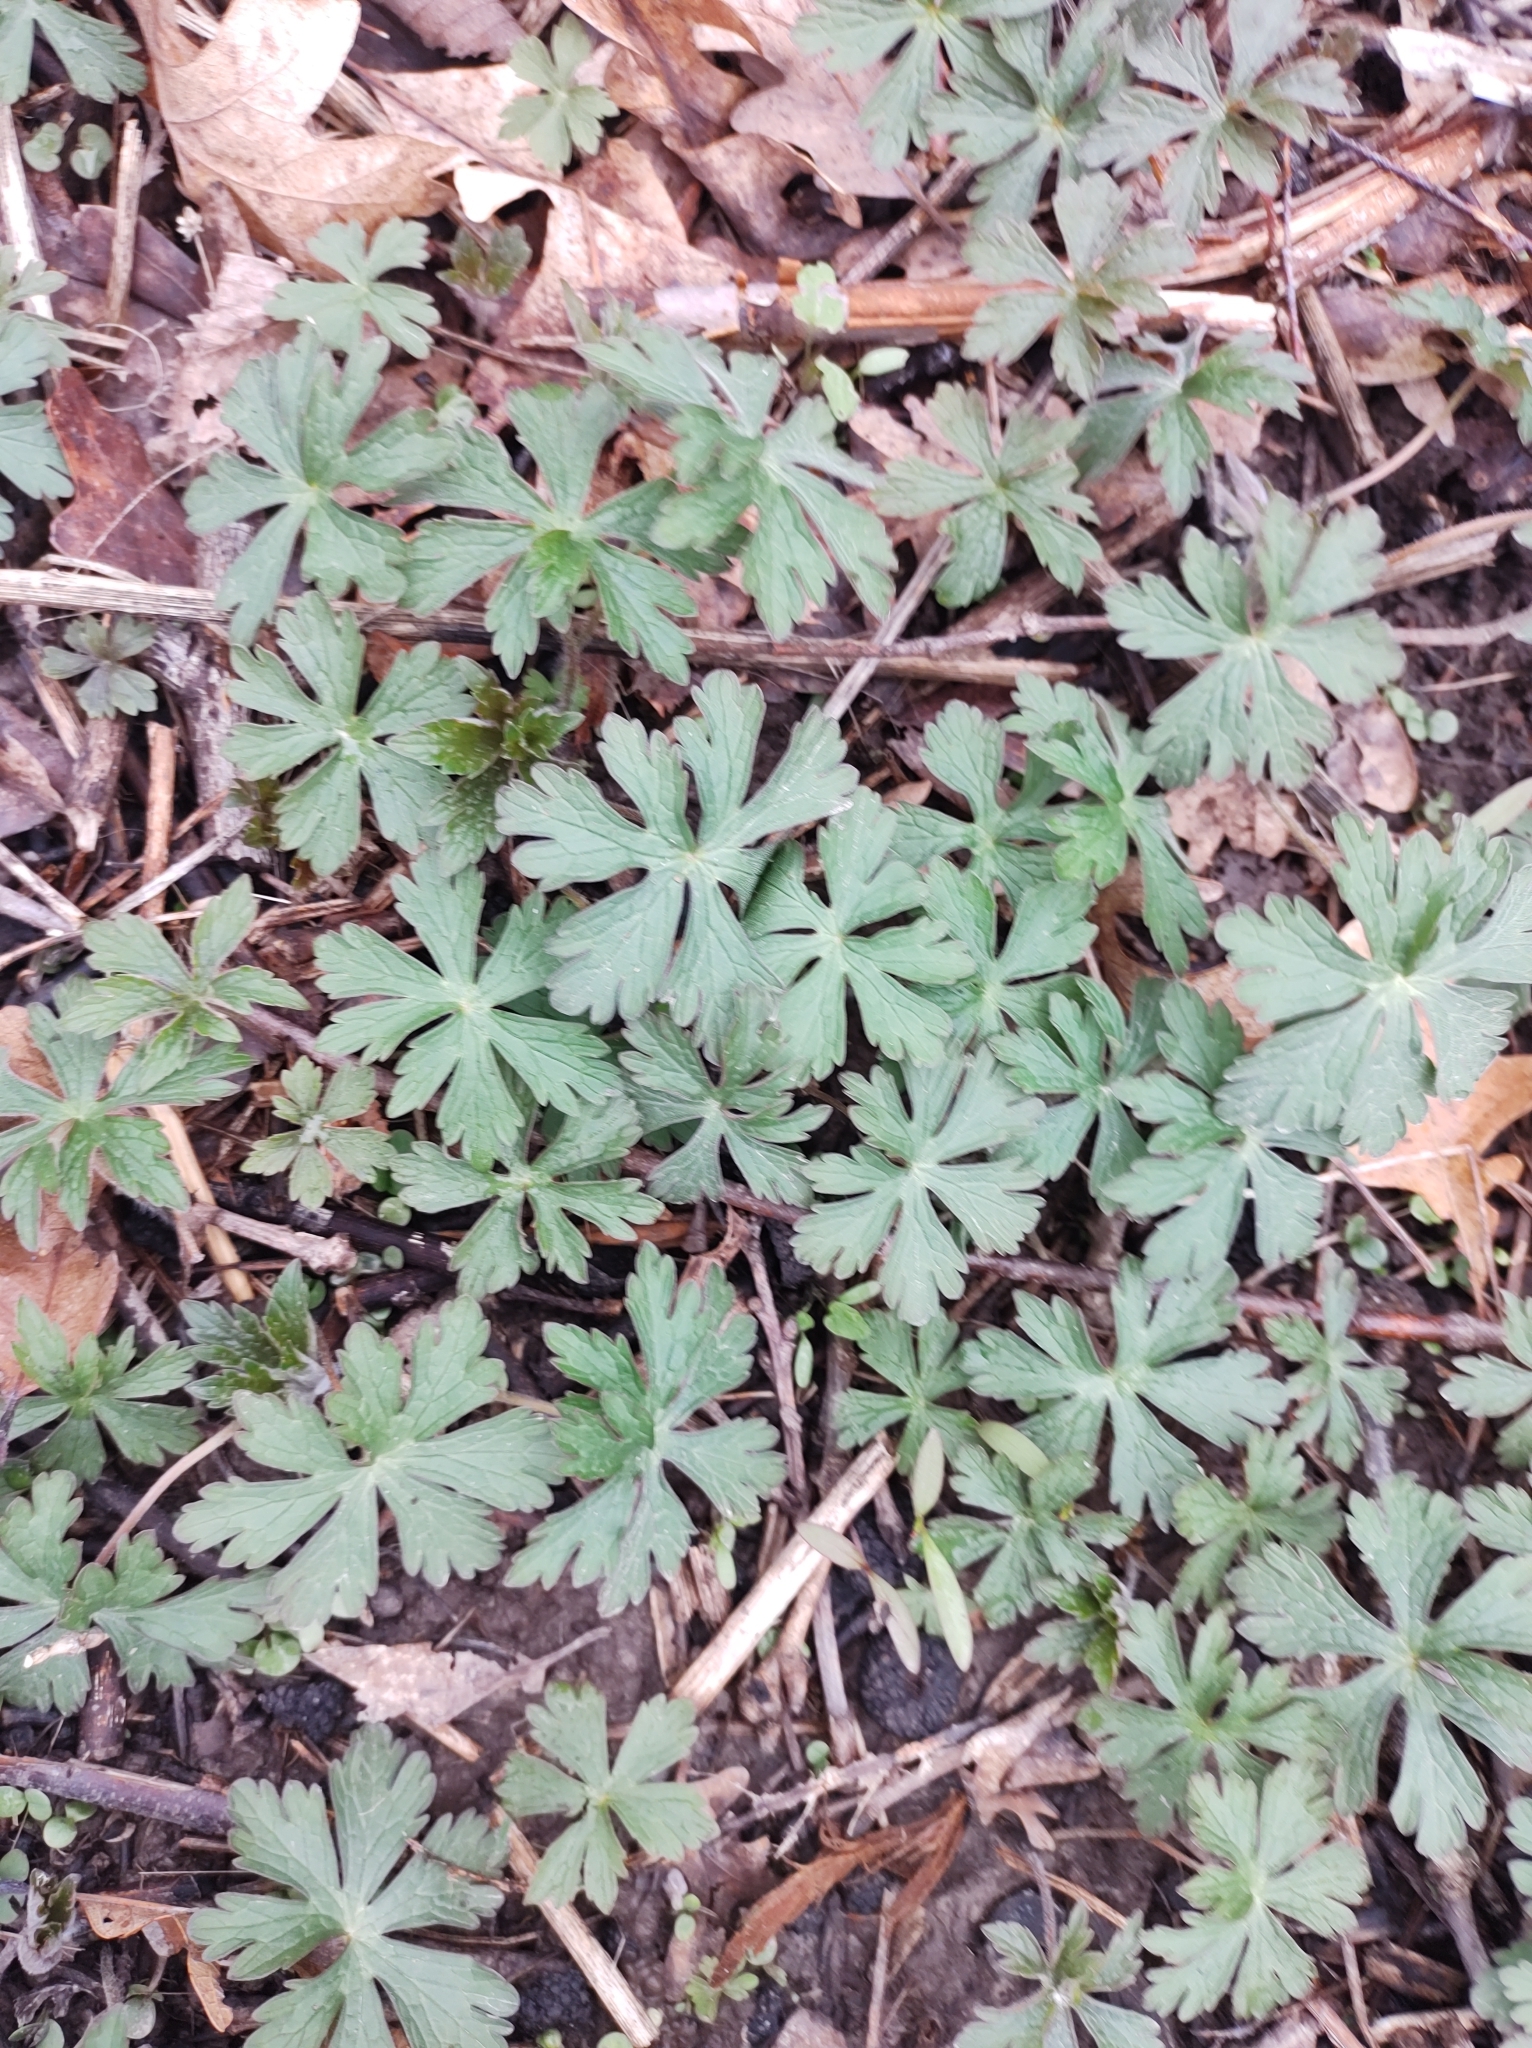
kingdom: Plantae
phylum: Tracheophyta
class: Magnoliopsida
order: Geraniales
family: Geraniaceae
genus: Geranium
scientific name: Geranium maculatum
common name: Spotted geranium
